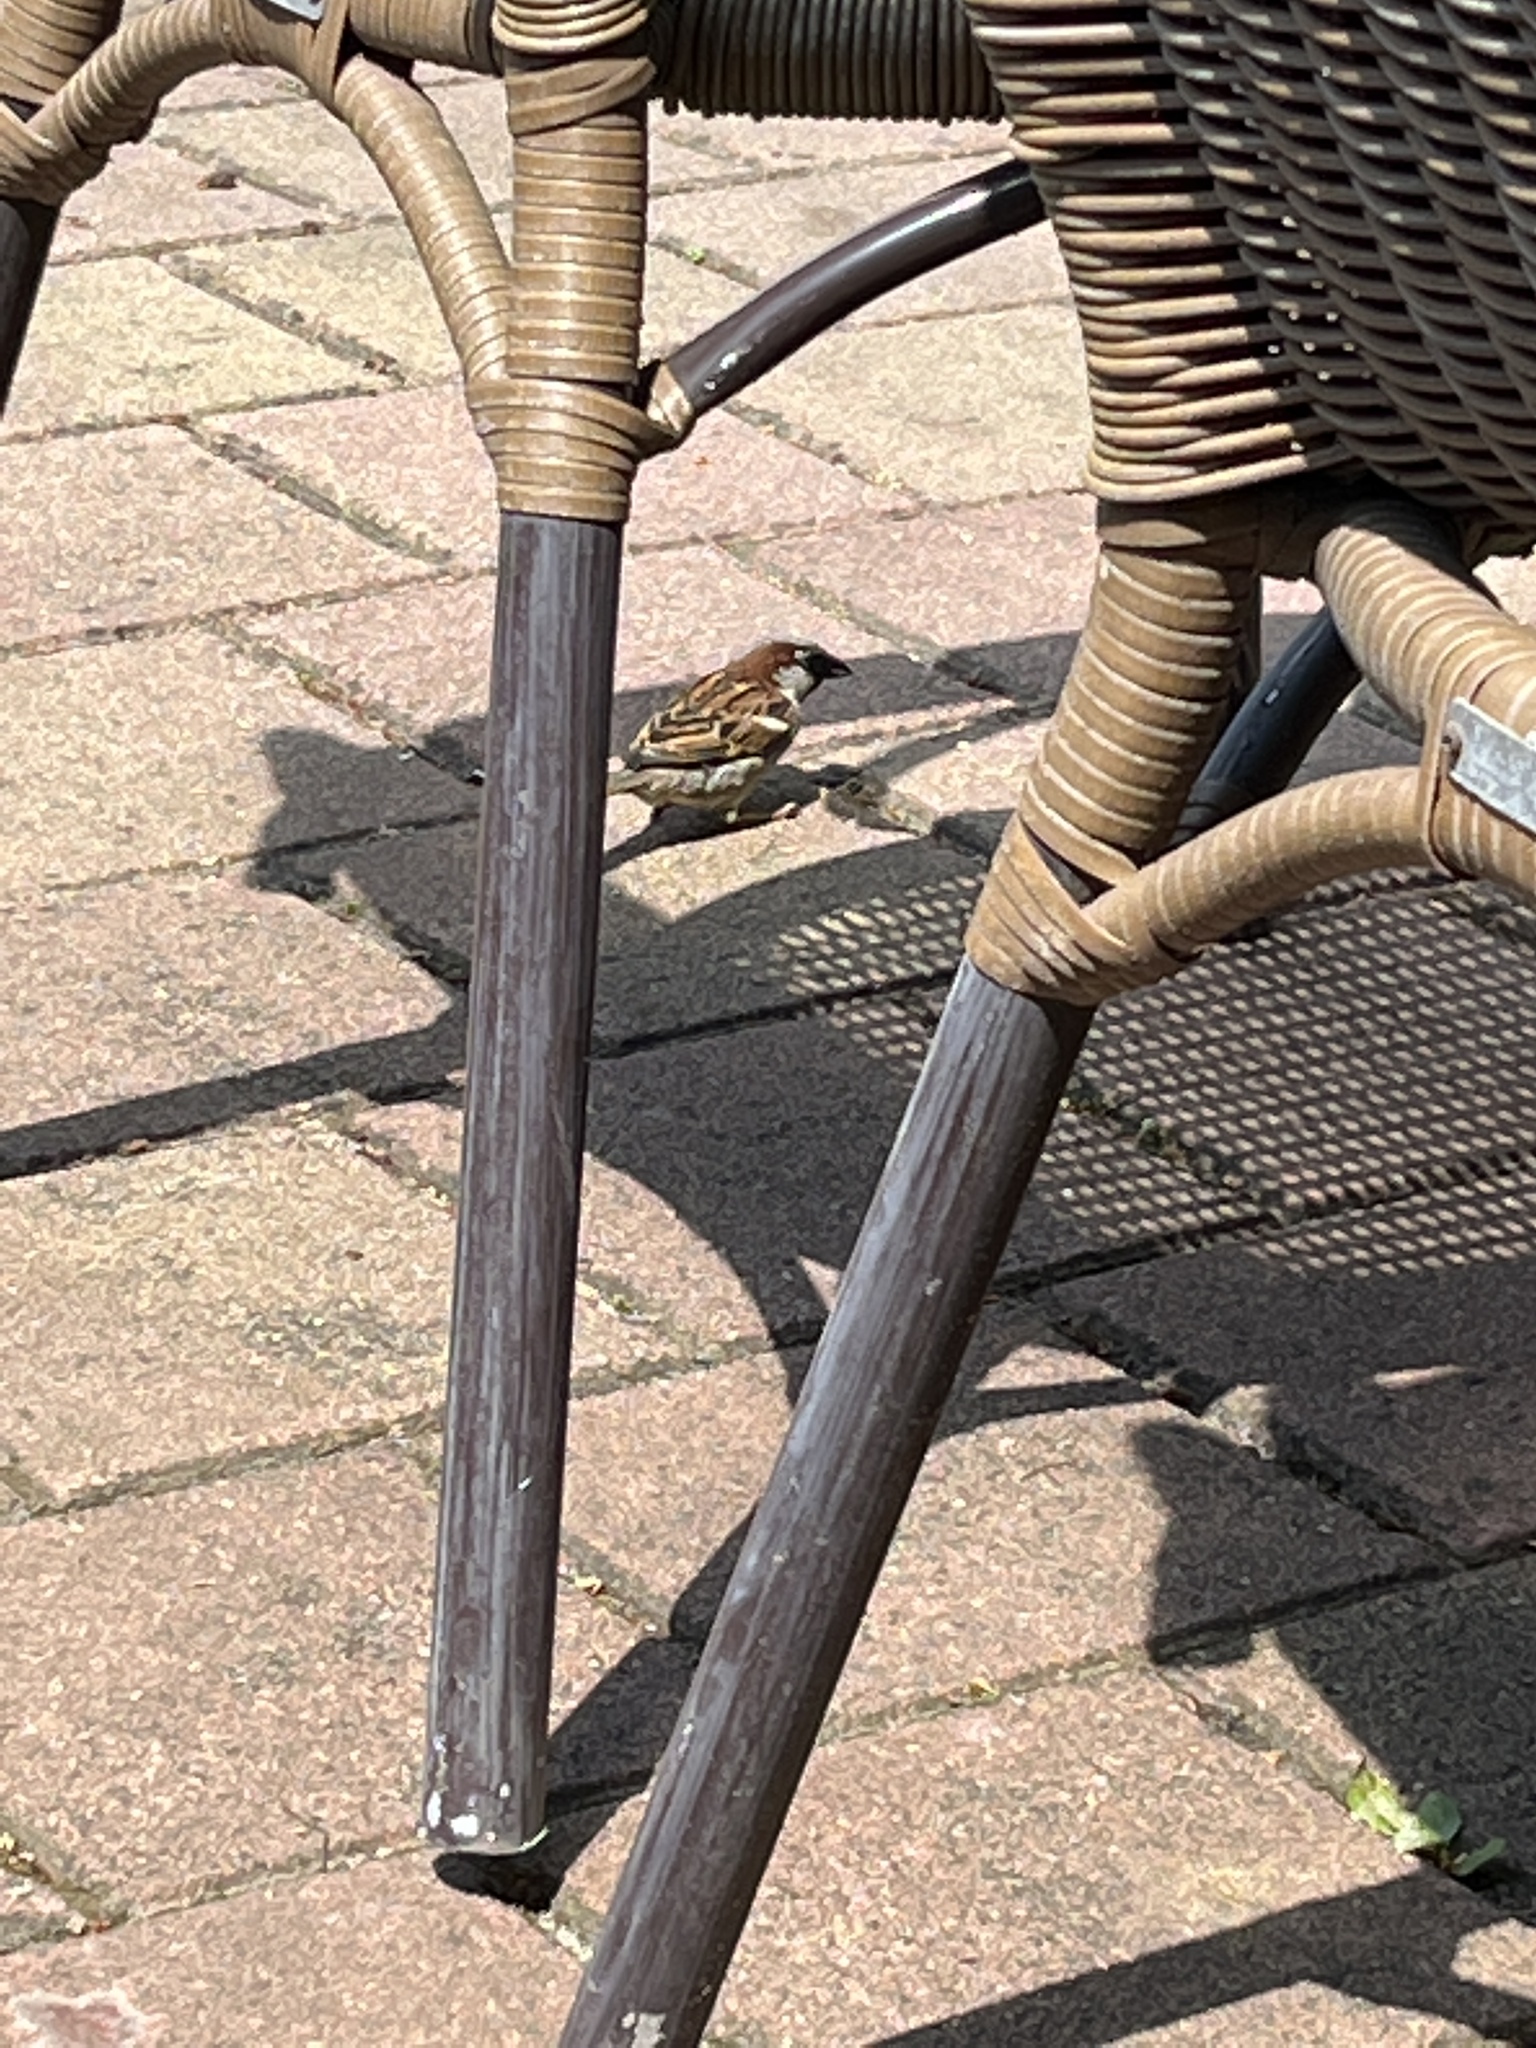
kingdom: Animalia
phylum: Chordata
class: Aves
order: Passeriformes
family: Passeridae
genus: Passer
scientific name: Passer domesticus
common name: House sparrow
